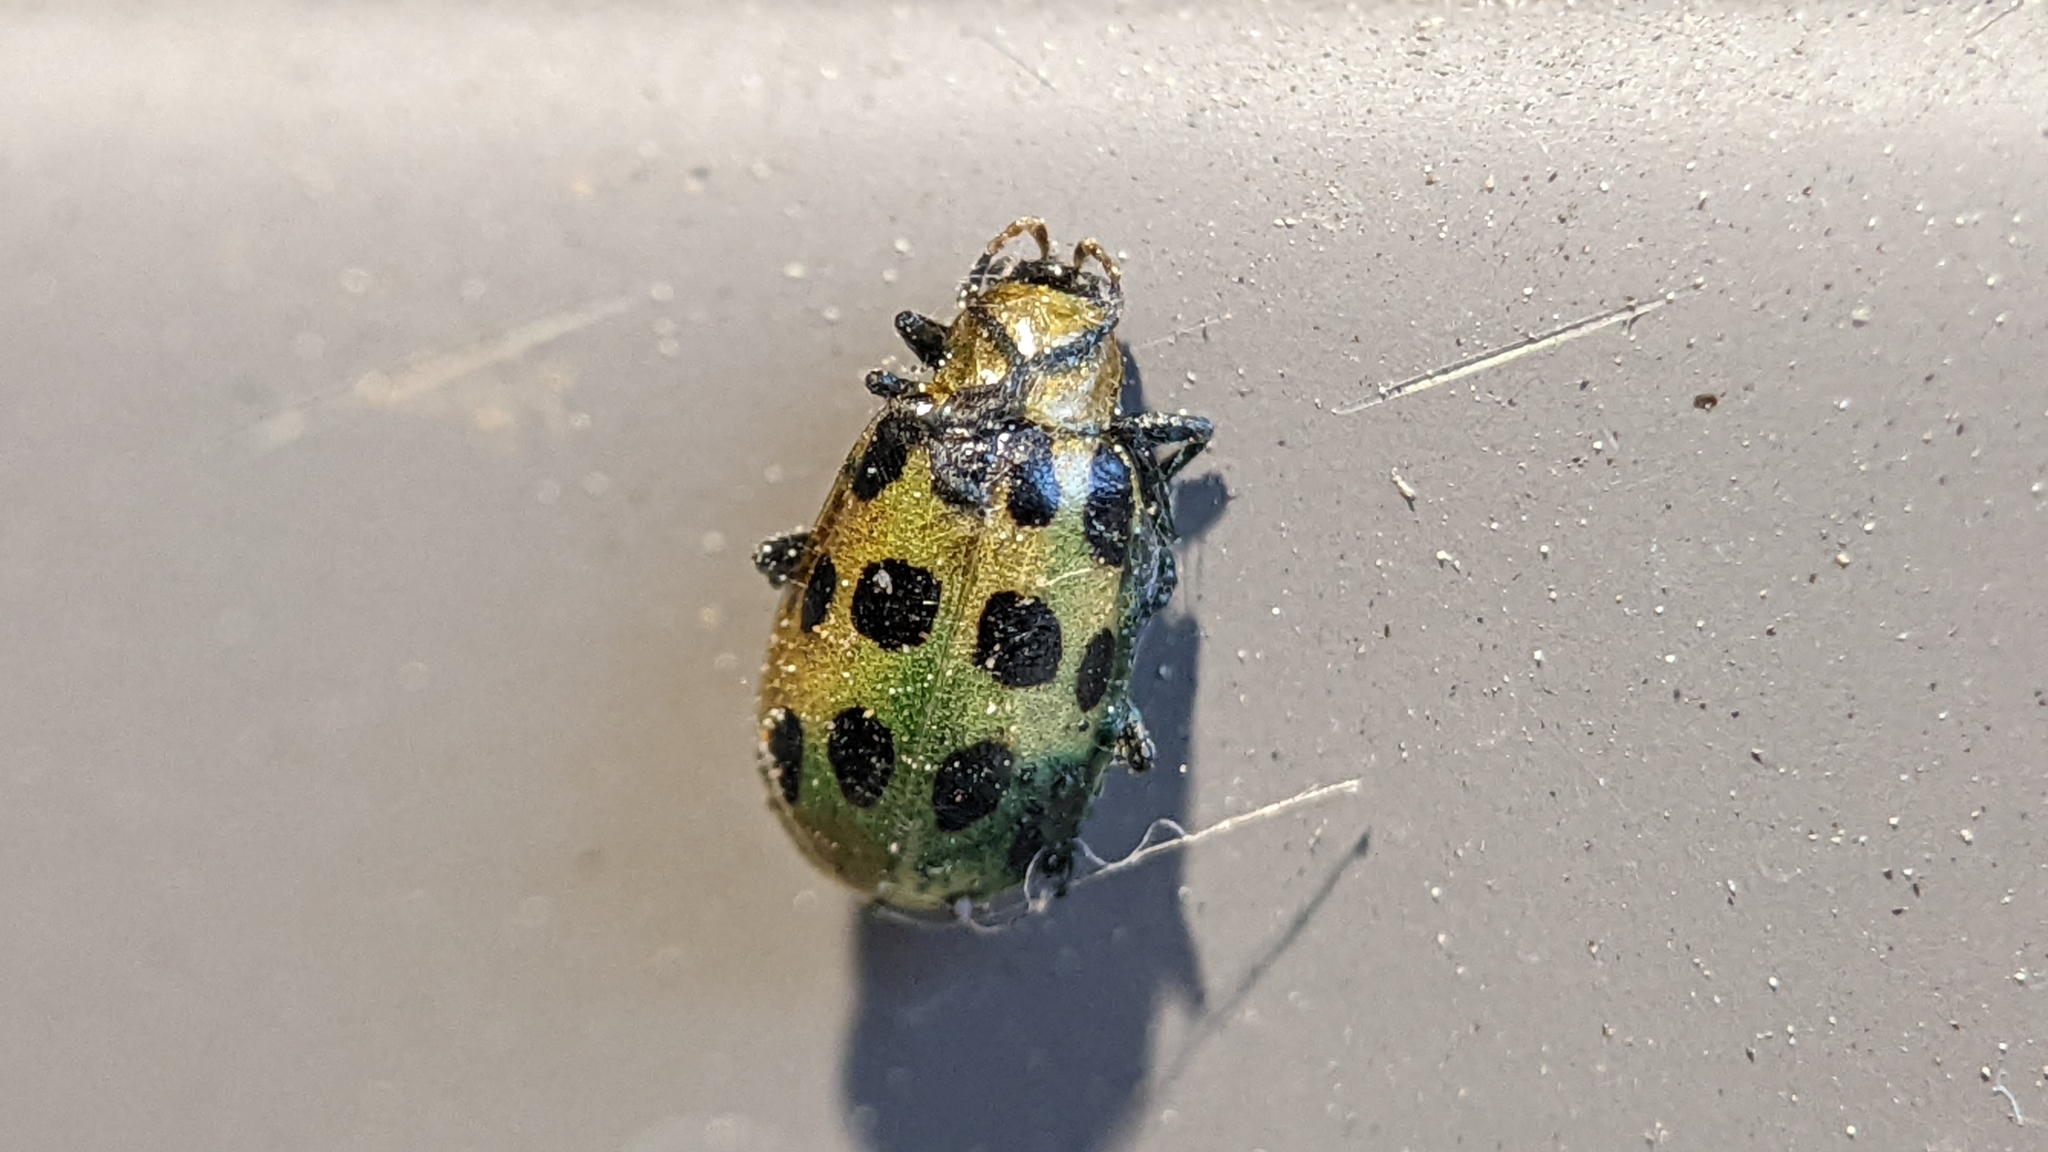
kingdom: Animalia
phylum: Arthropoda
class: Insecta
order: Coleoptera
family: Chrysomelidae
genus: Diabrotica
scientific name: Diabrotica undecimpunctata
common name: Spotted cucumber beetle
